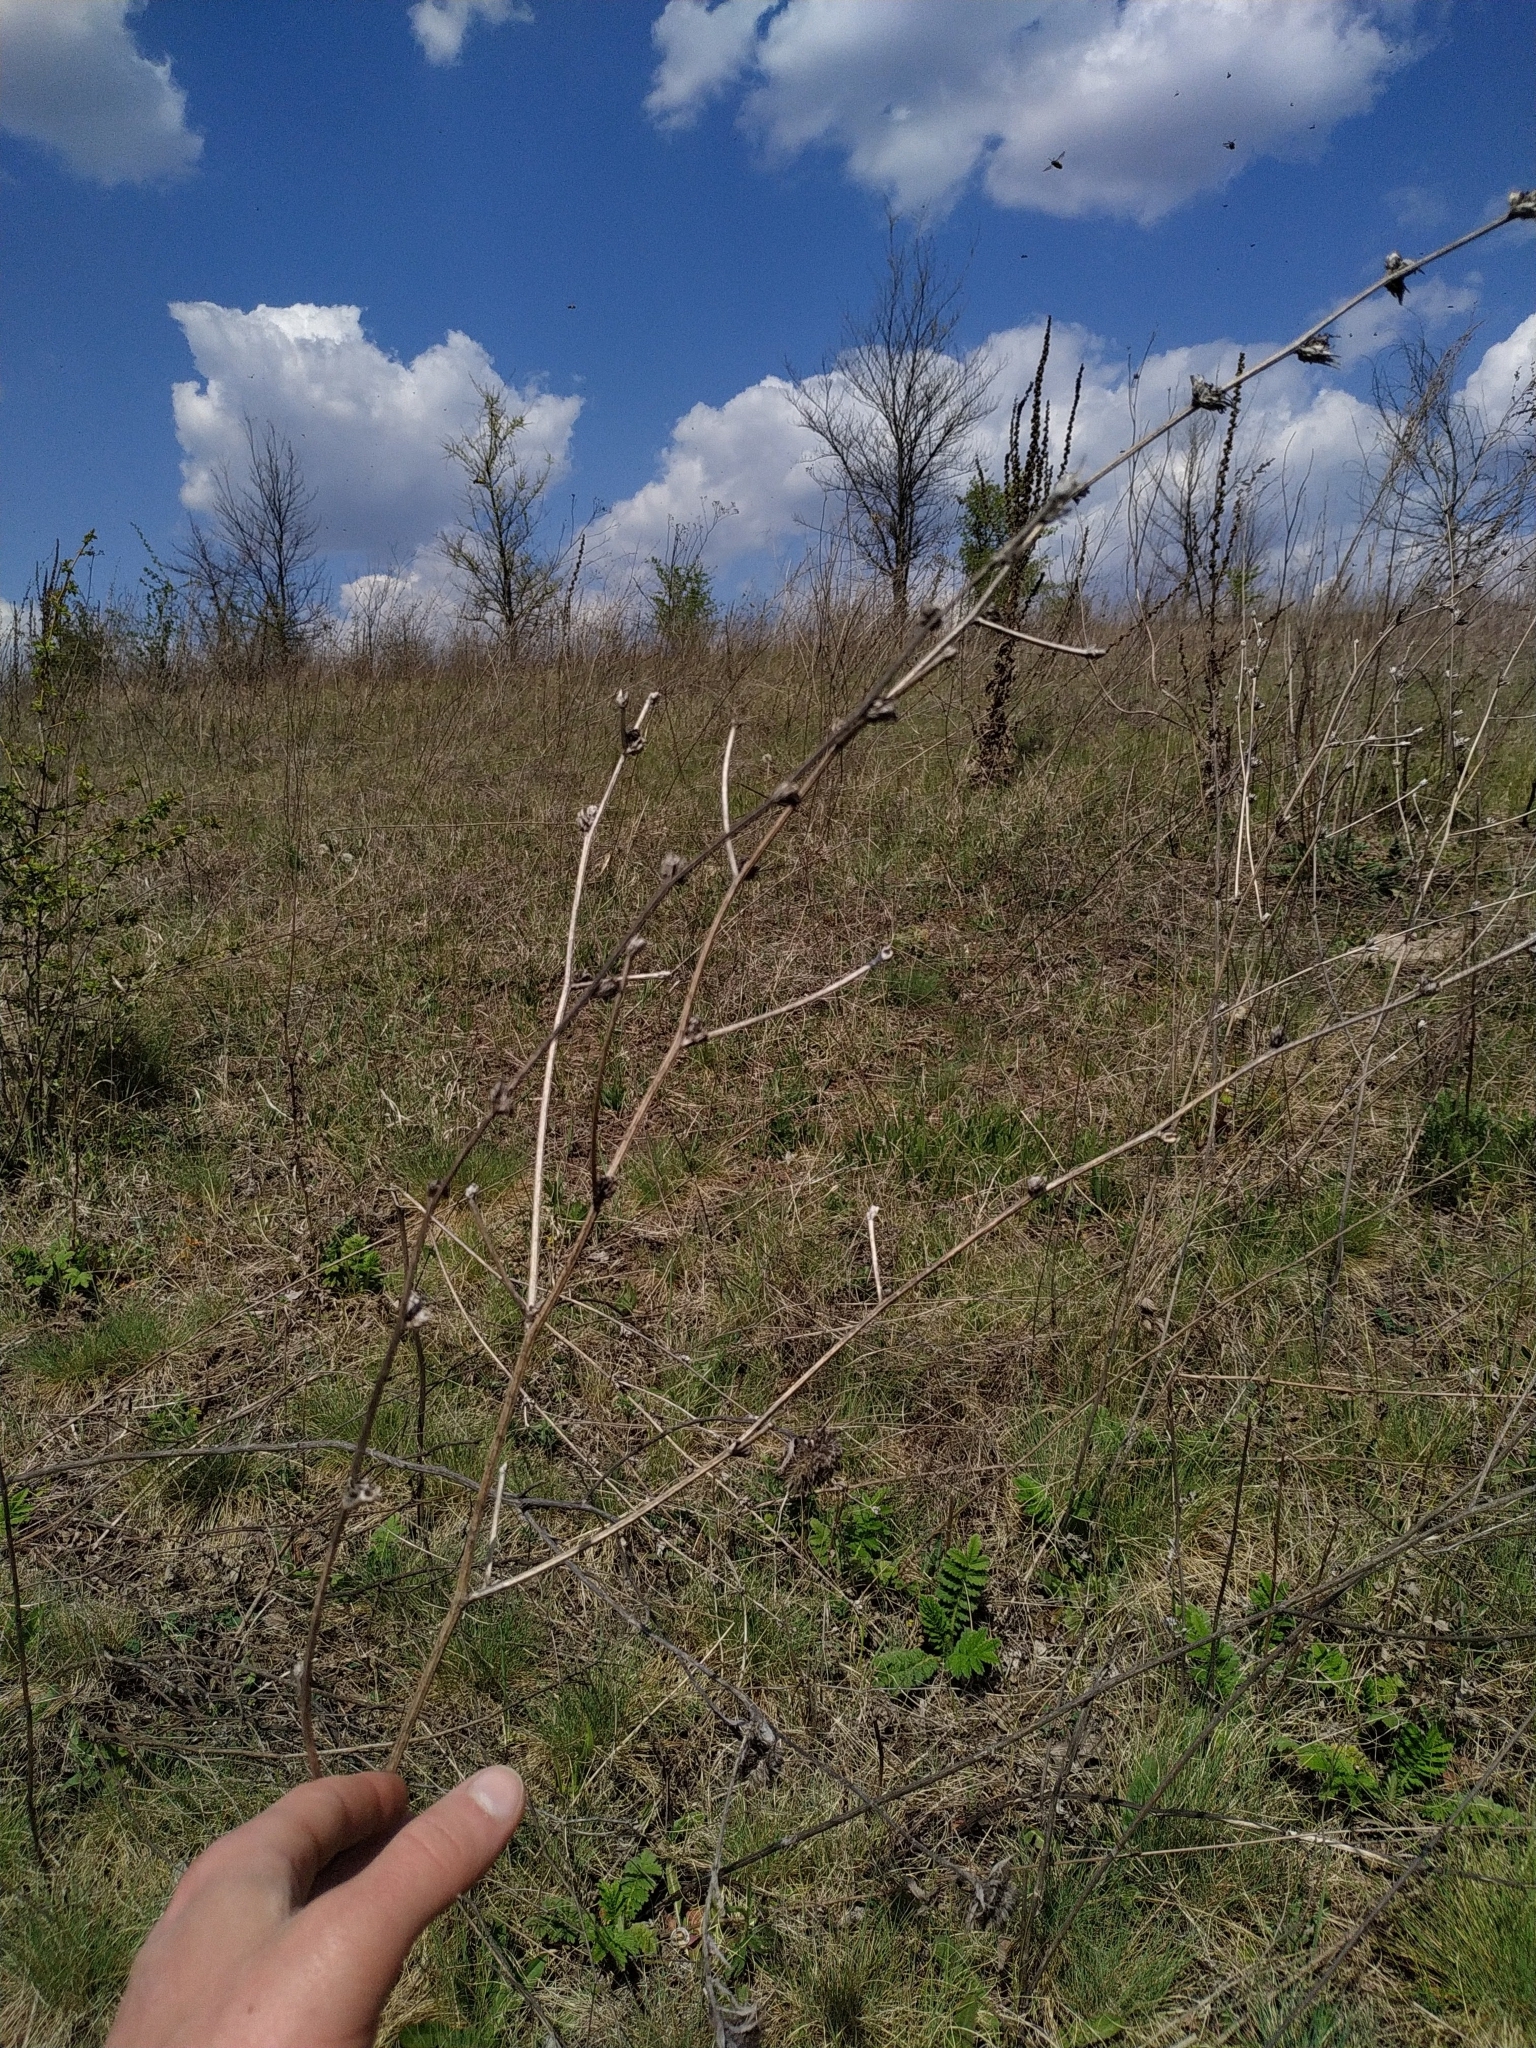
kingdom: Plantae
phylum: Tracheophyta
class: Magnoliopsida
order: Asterales
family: Asteraceae
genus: Cichorium
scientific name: Cichorium intybus
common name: Chicory
